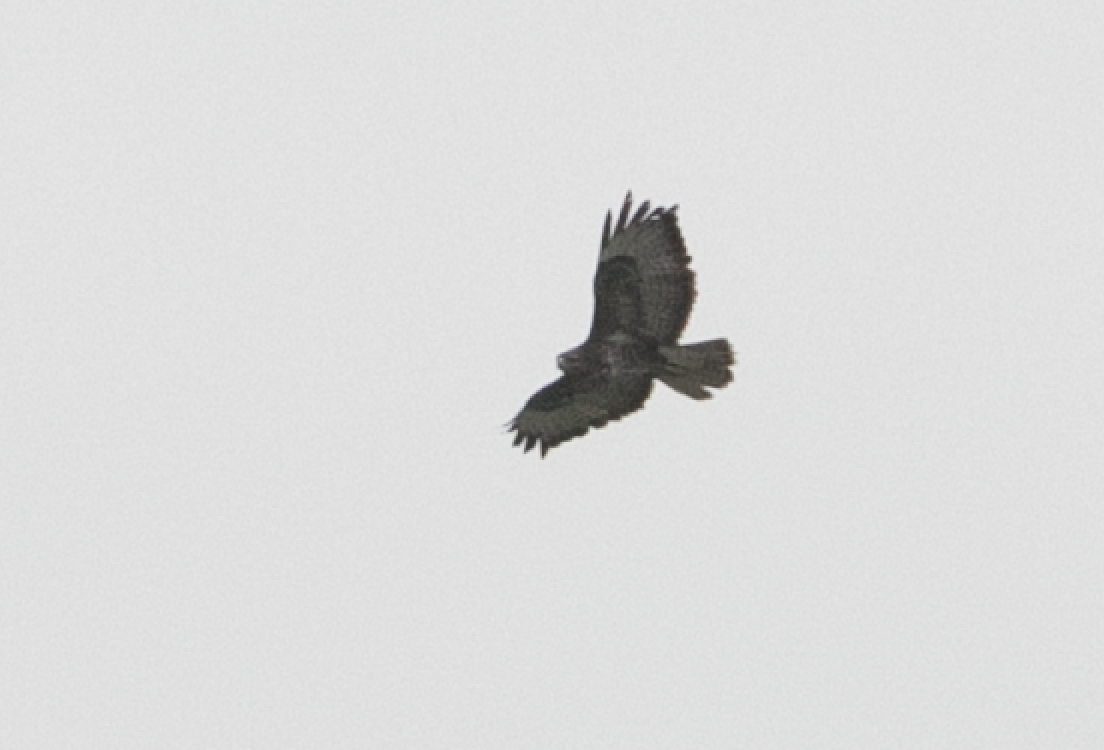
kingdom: Animalia
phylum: Chordata
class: Aves
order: Accipitriformes
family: Accipitridae
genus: Buteo
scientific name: Buteo buteo
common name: Common buzzard
